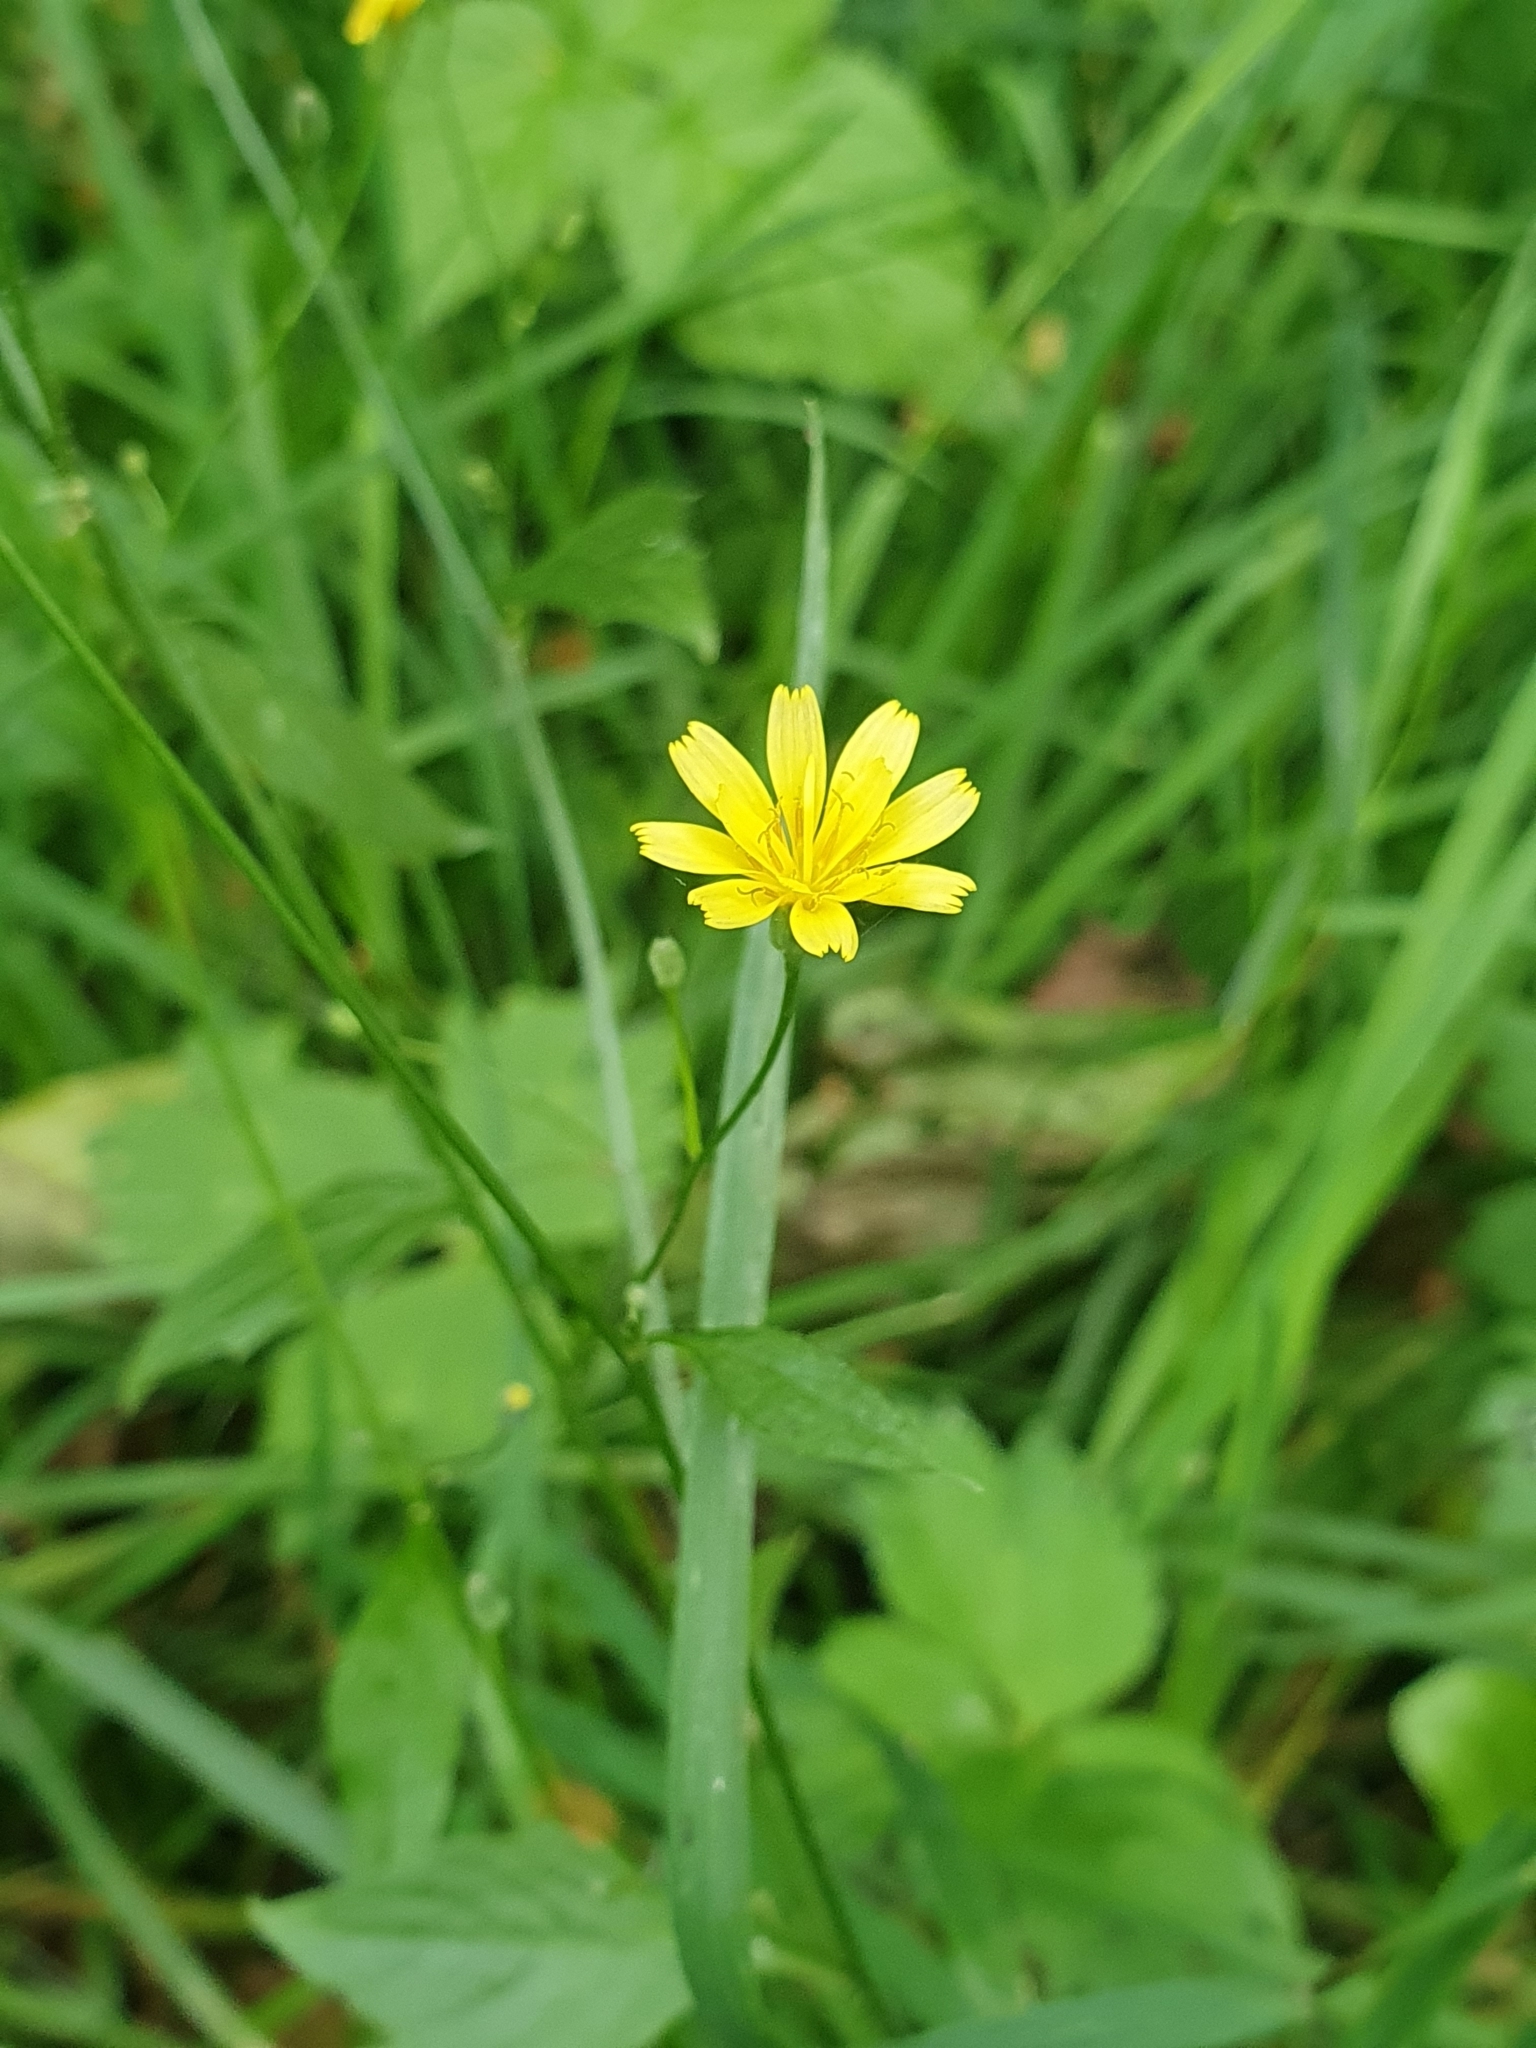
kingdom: Plantae
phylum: Tracheophyta
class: Magnoliopsida
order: Asterales
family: Asteraceae
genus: Lapsana
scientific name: Lapsana communis
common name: Nipplewort
